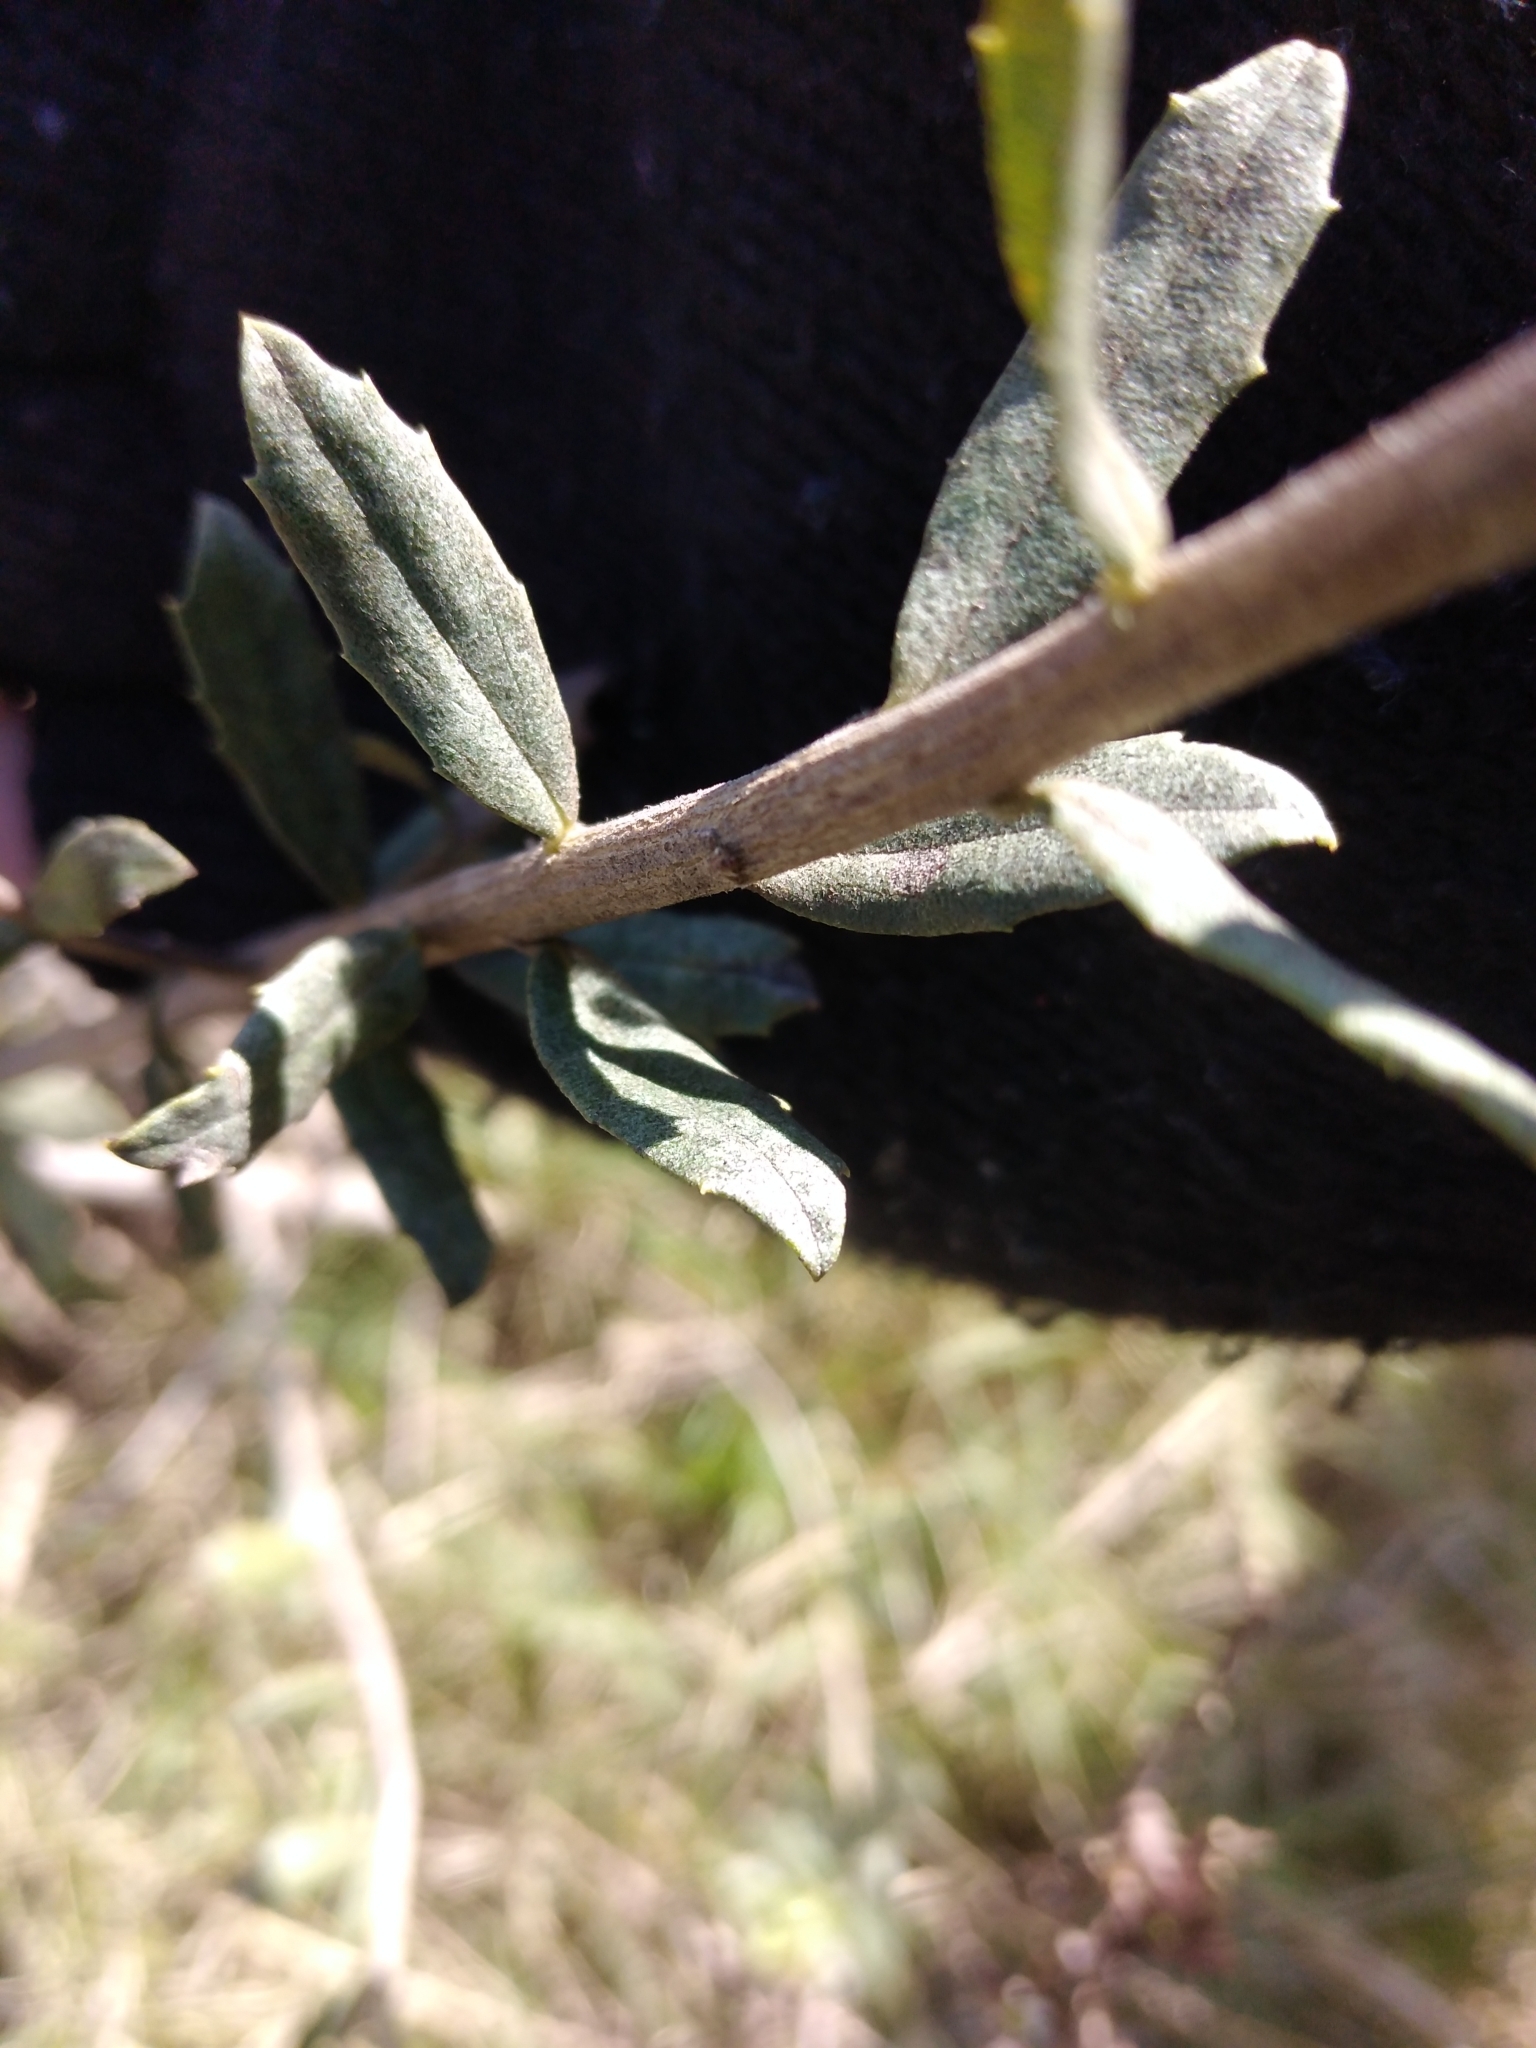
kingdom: Plantae
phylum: Tracheophyta
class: Magnoliopsida
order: Asterales
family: Asteraceae
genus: Baccharis
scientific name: Baccharis dracunculifolia
